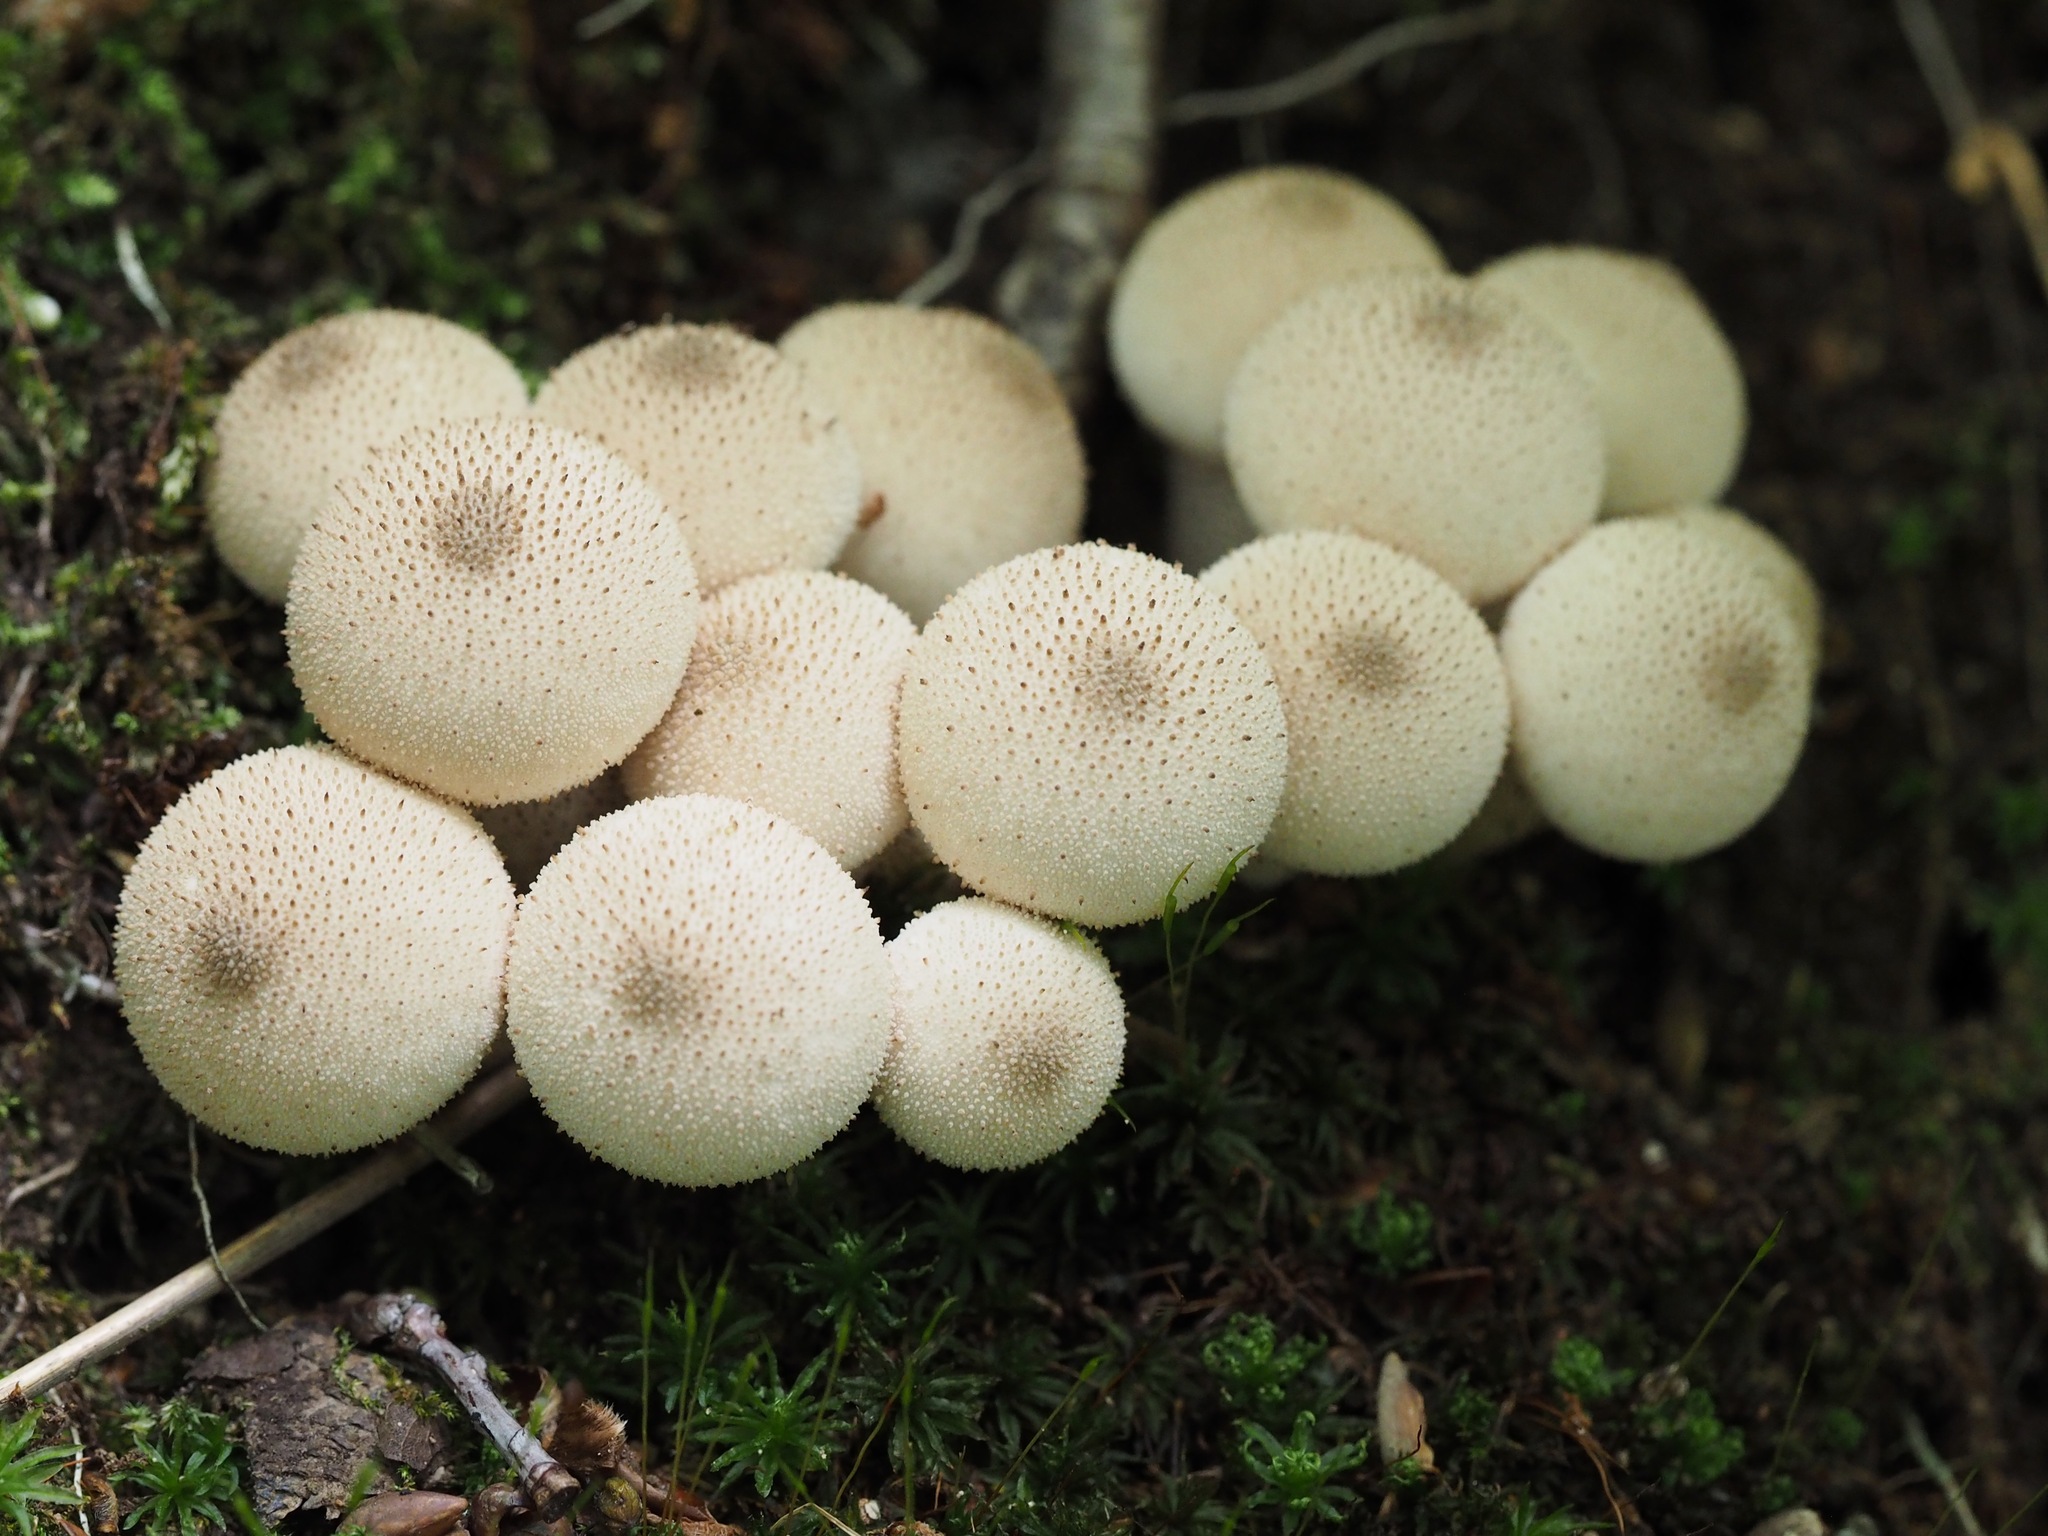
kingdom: Fungi
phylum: Basidiomycota
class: Agaricomycetes
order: Agaricales
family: Lycoperdaceae
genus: Lycoperdon
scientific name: Lycoperdon perlatum
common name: Common puffball
